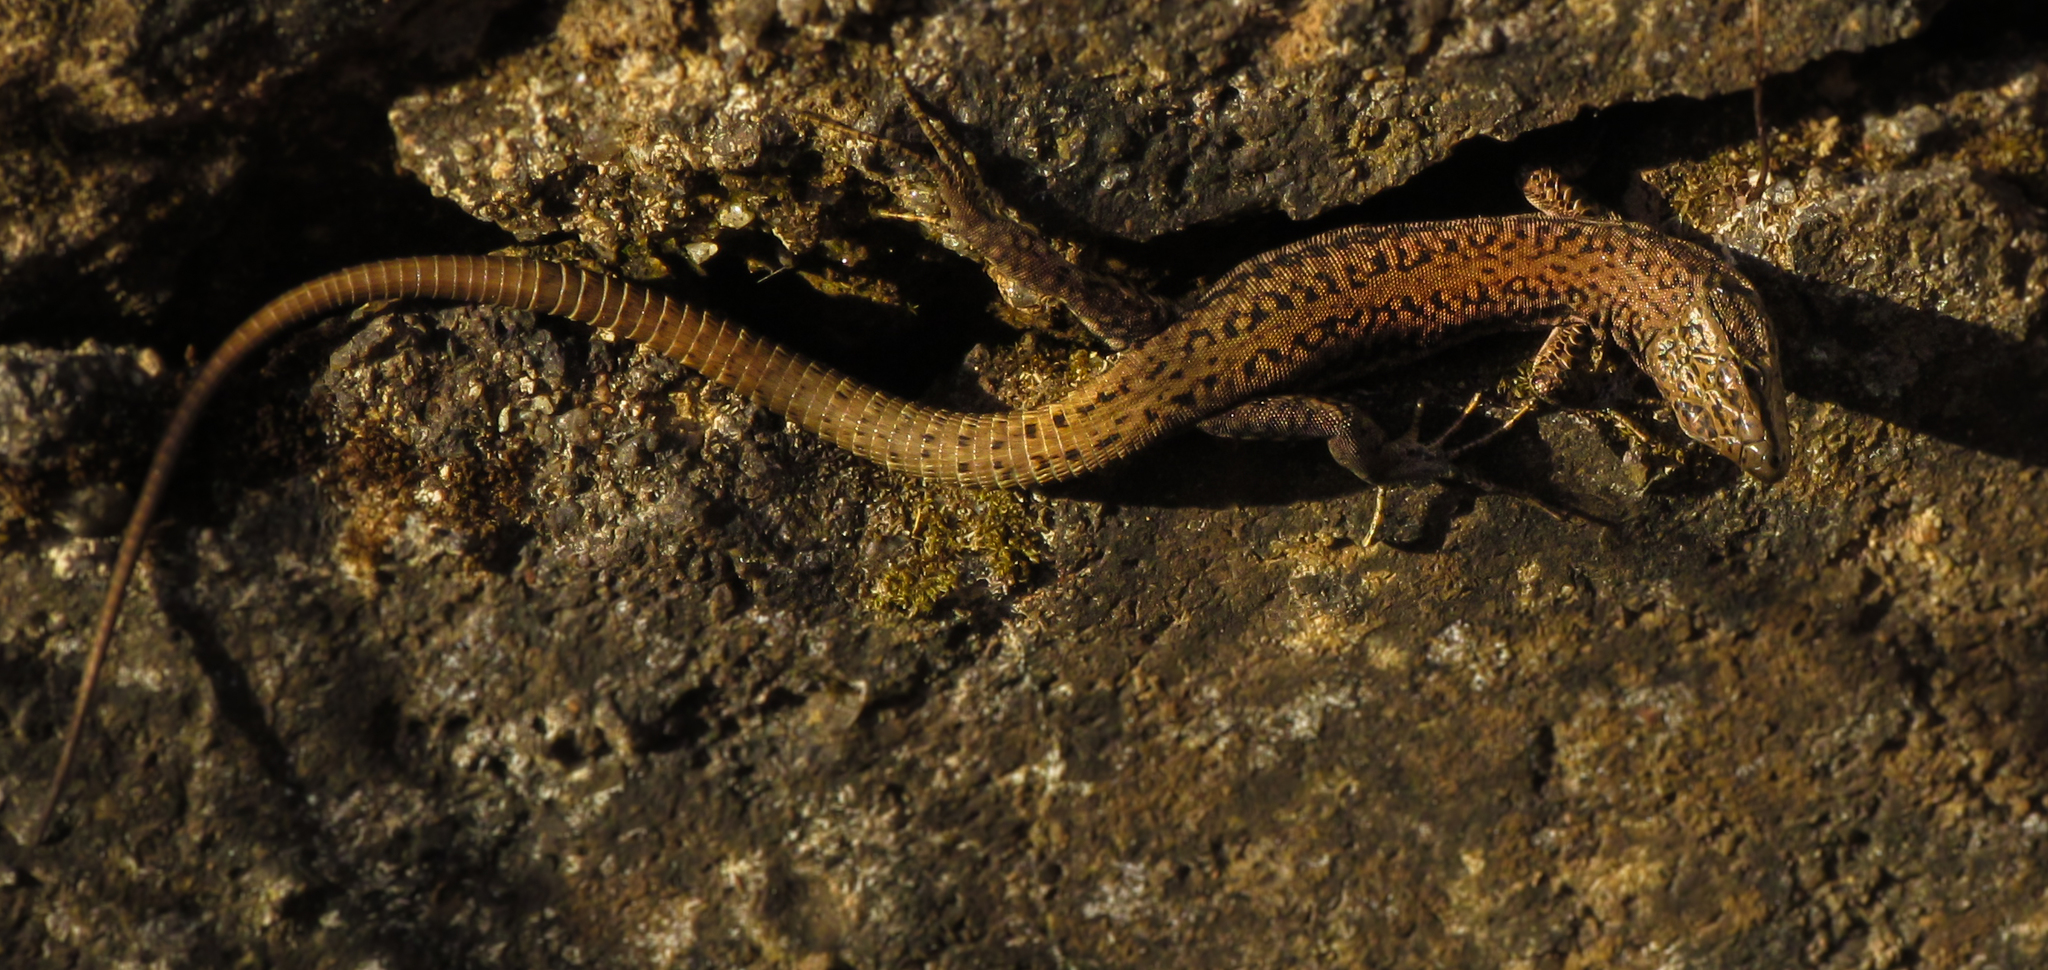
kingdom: Animalia
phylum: Chordata
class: Squamata
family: Lacertidae
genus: Podarcis
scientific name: Podarcis virescens
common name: Geniez’s wall lizard
